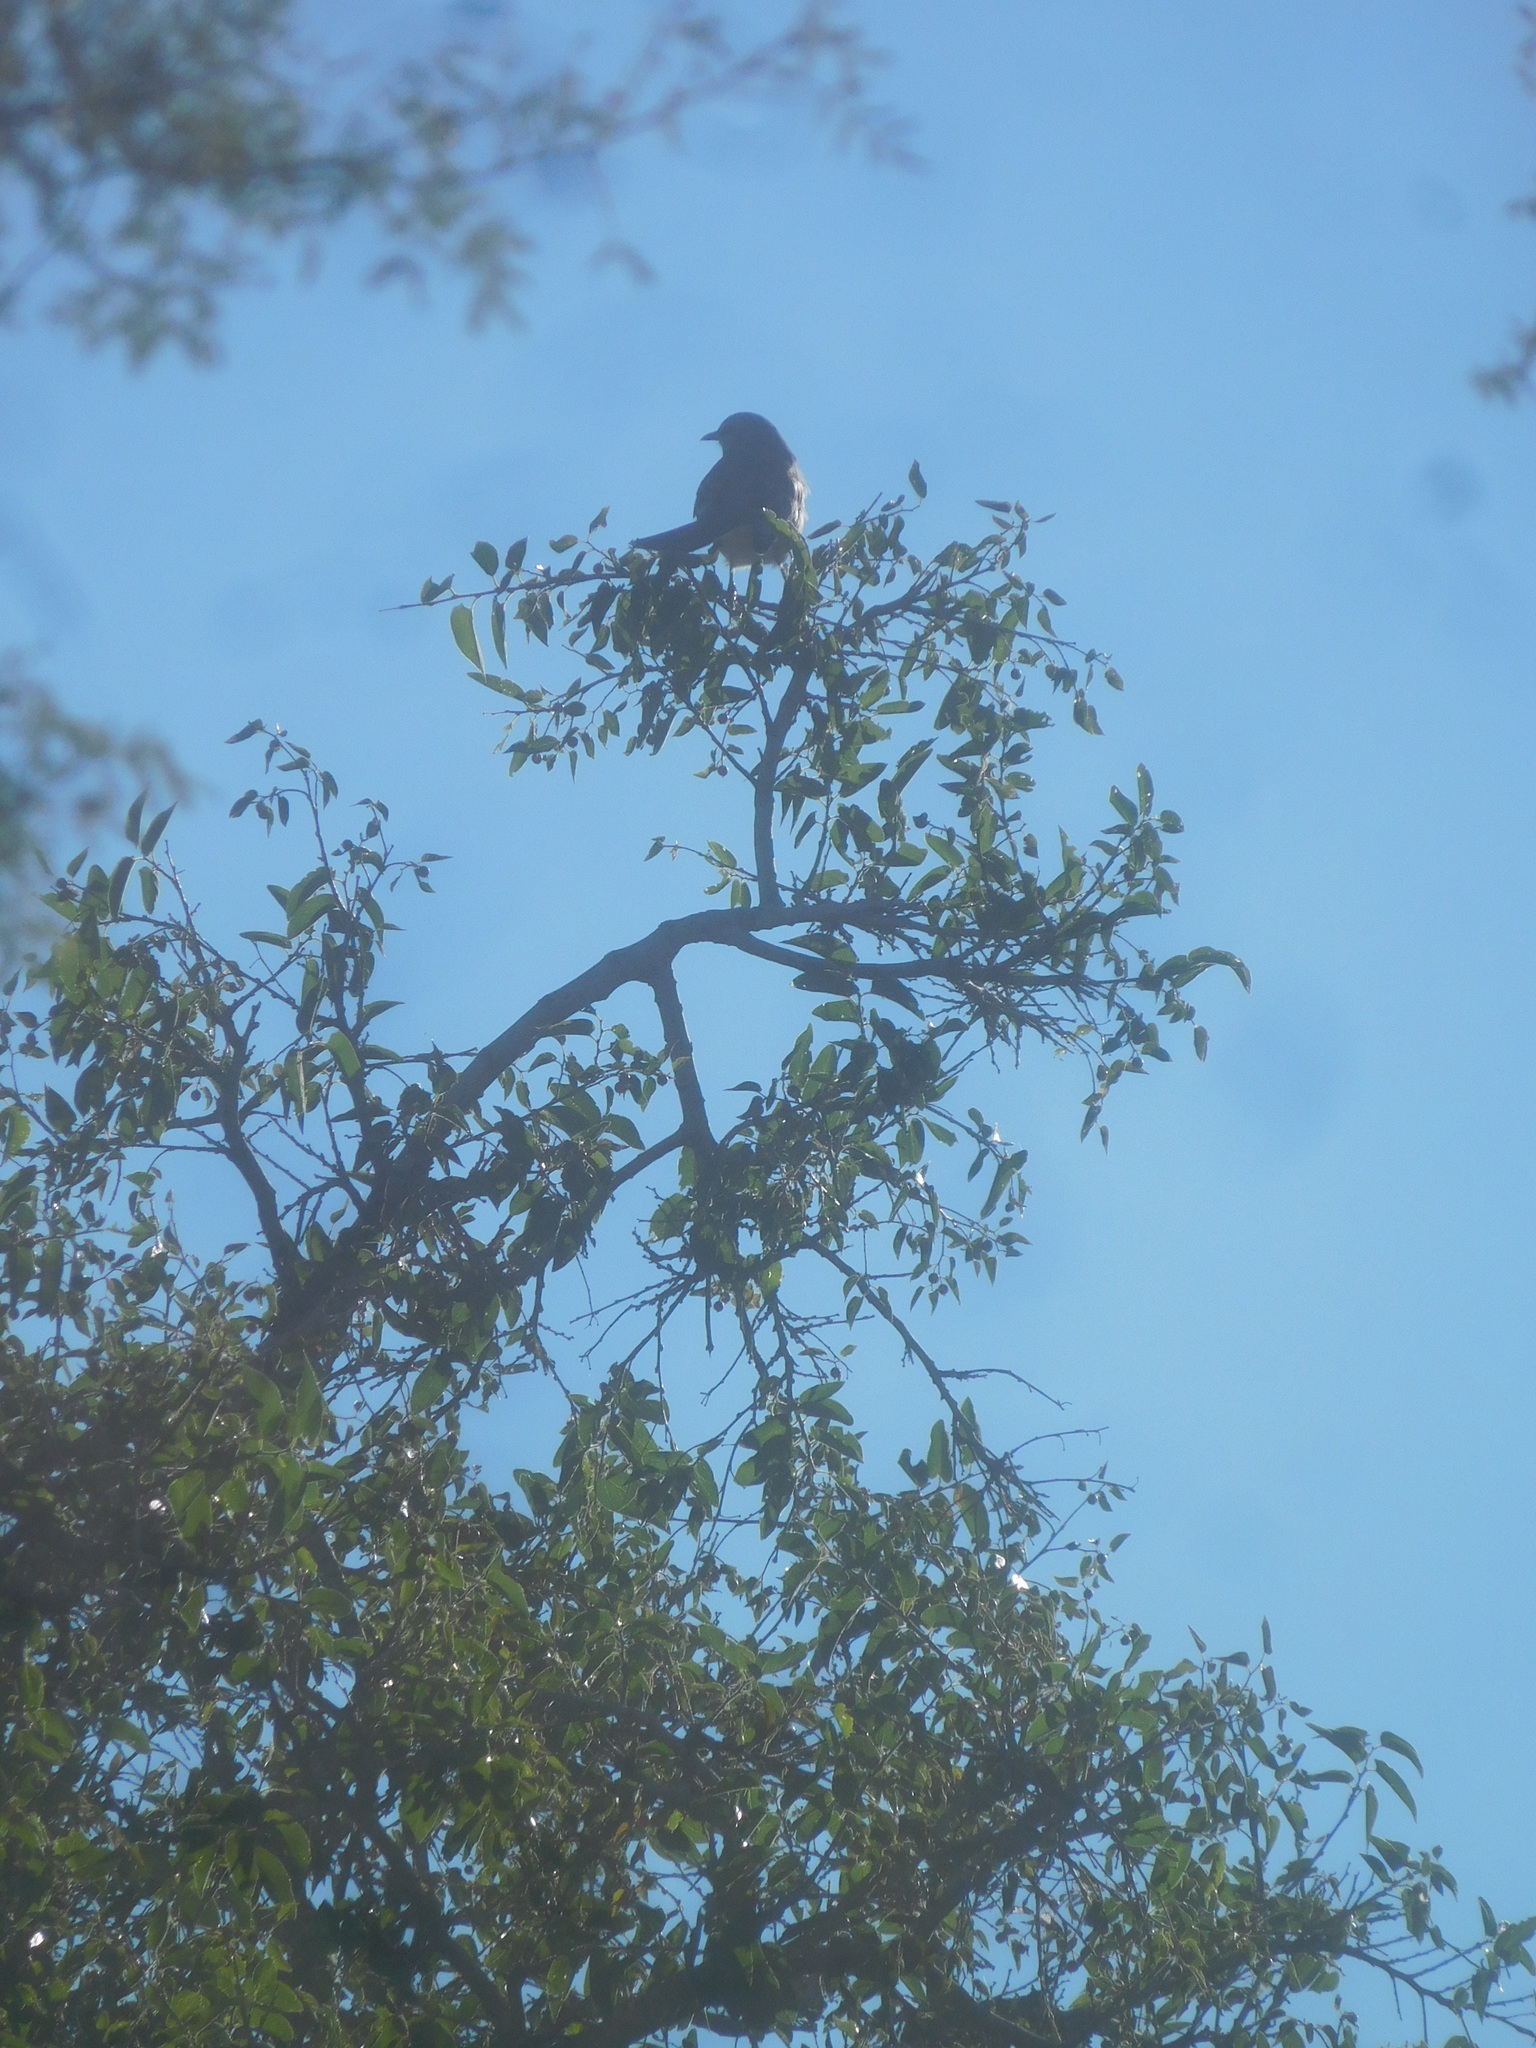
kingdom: Animalia
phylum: Chordata
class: Aves
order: Passeriformes
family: Mimidae
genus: Mimus
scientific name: Mimus polyglottos
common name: Northern mockingbird
